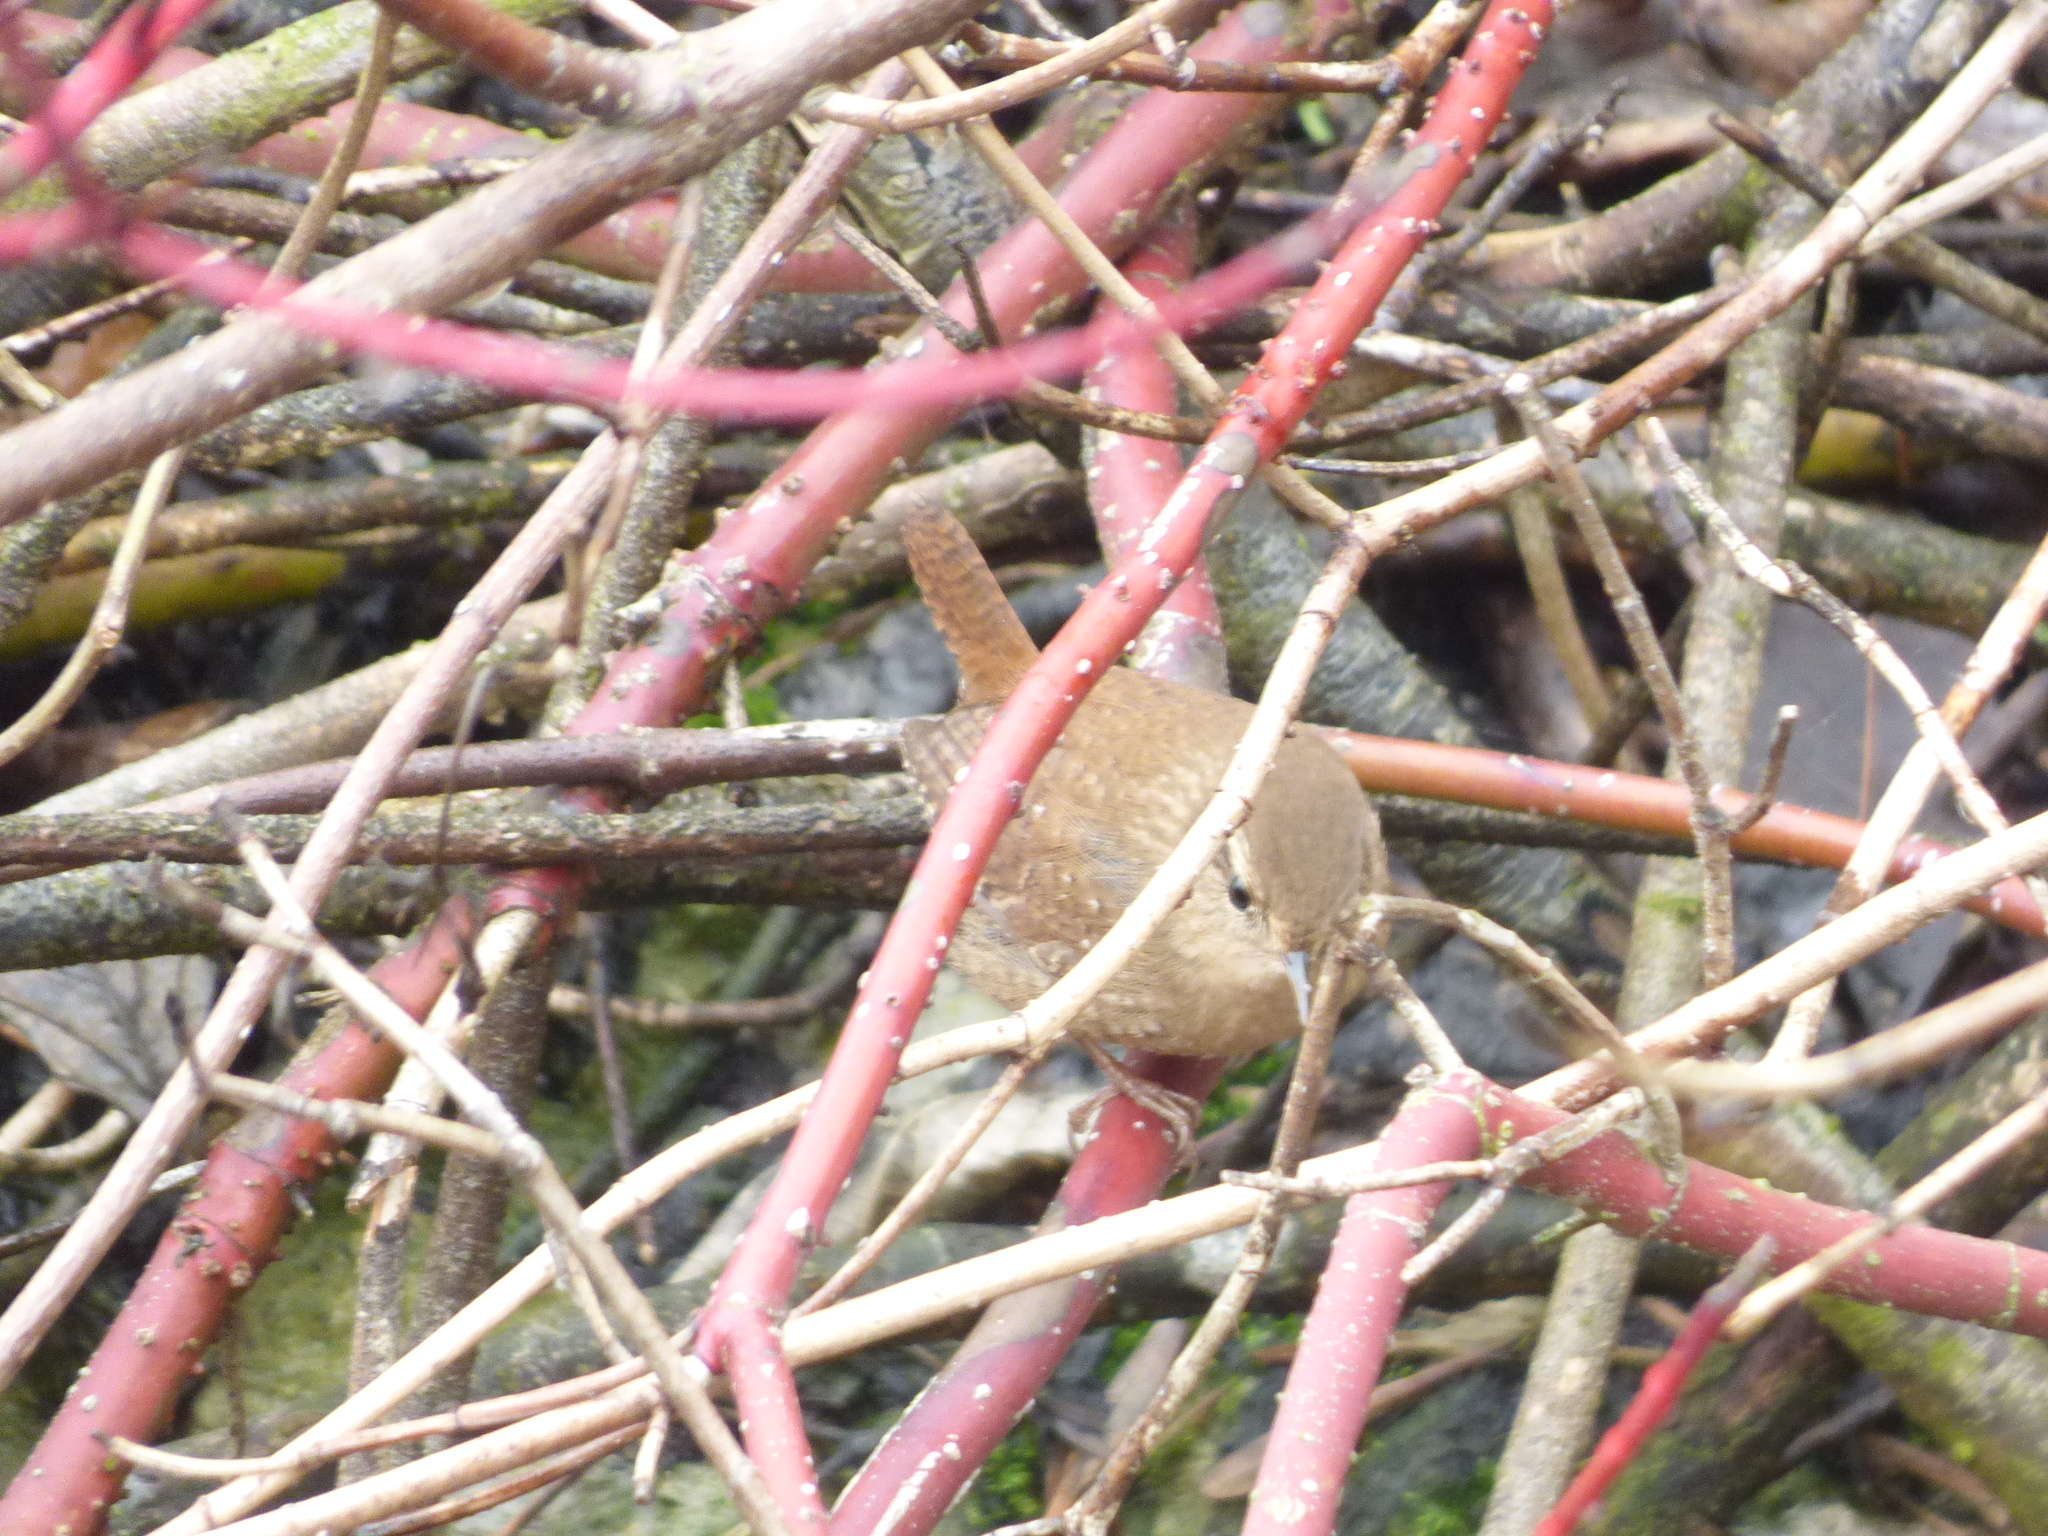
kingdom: Animalia
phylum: Chordata
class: Aves
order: Passeriformes
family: Troglodytidae
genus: Troglodytes
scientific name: Troglodytes hiemalis
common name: Winter wren
